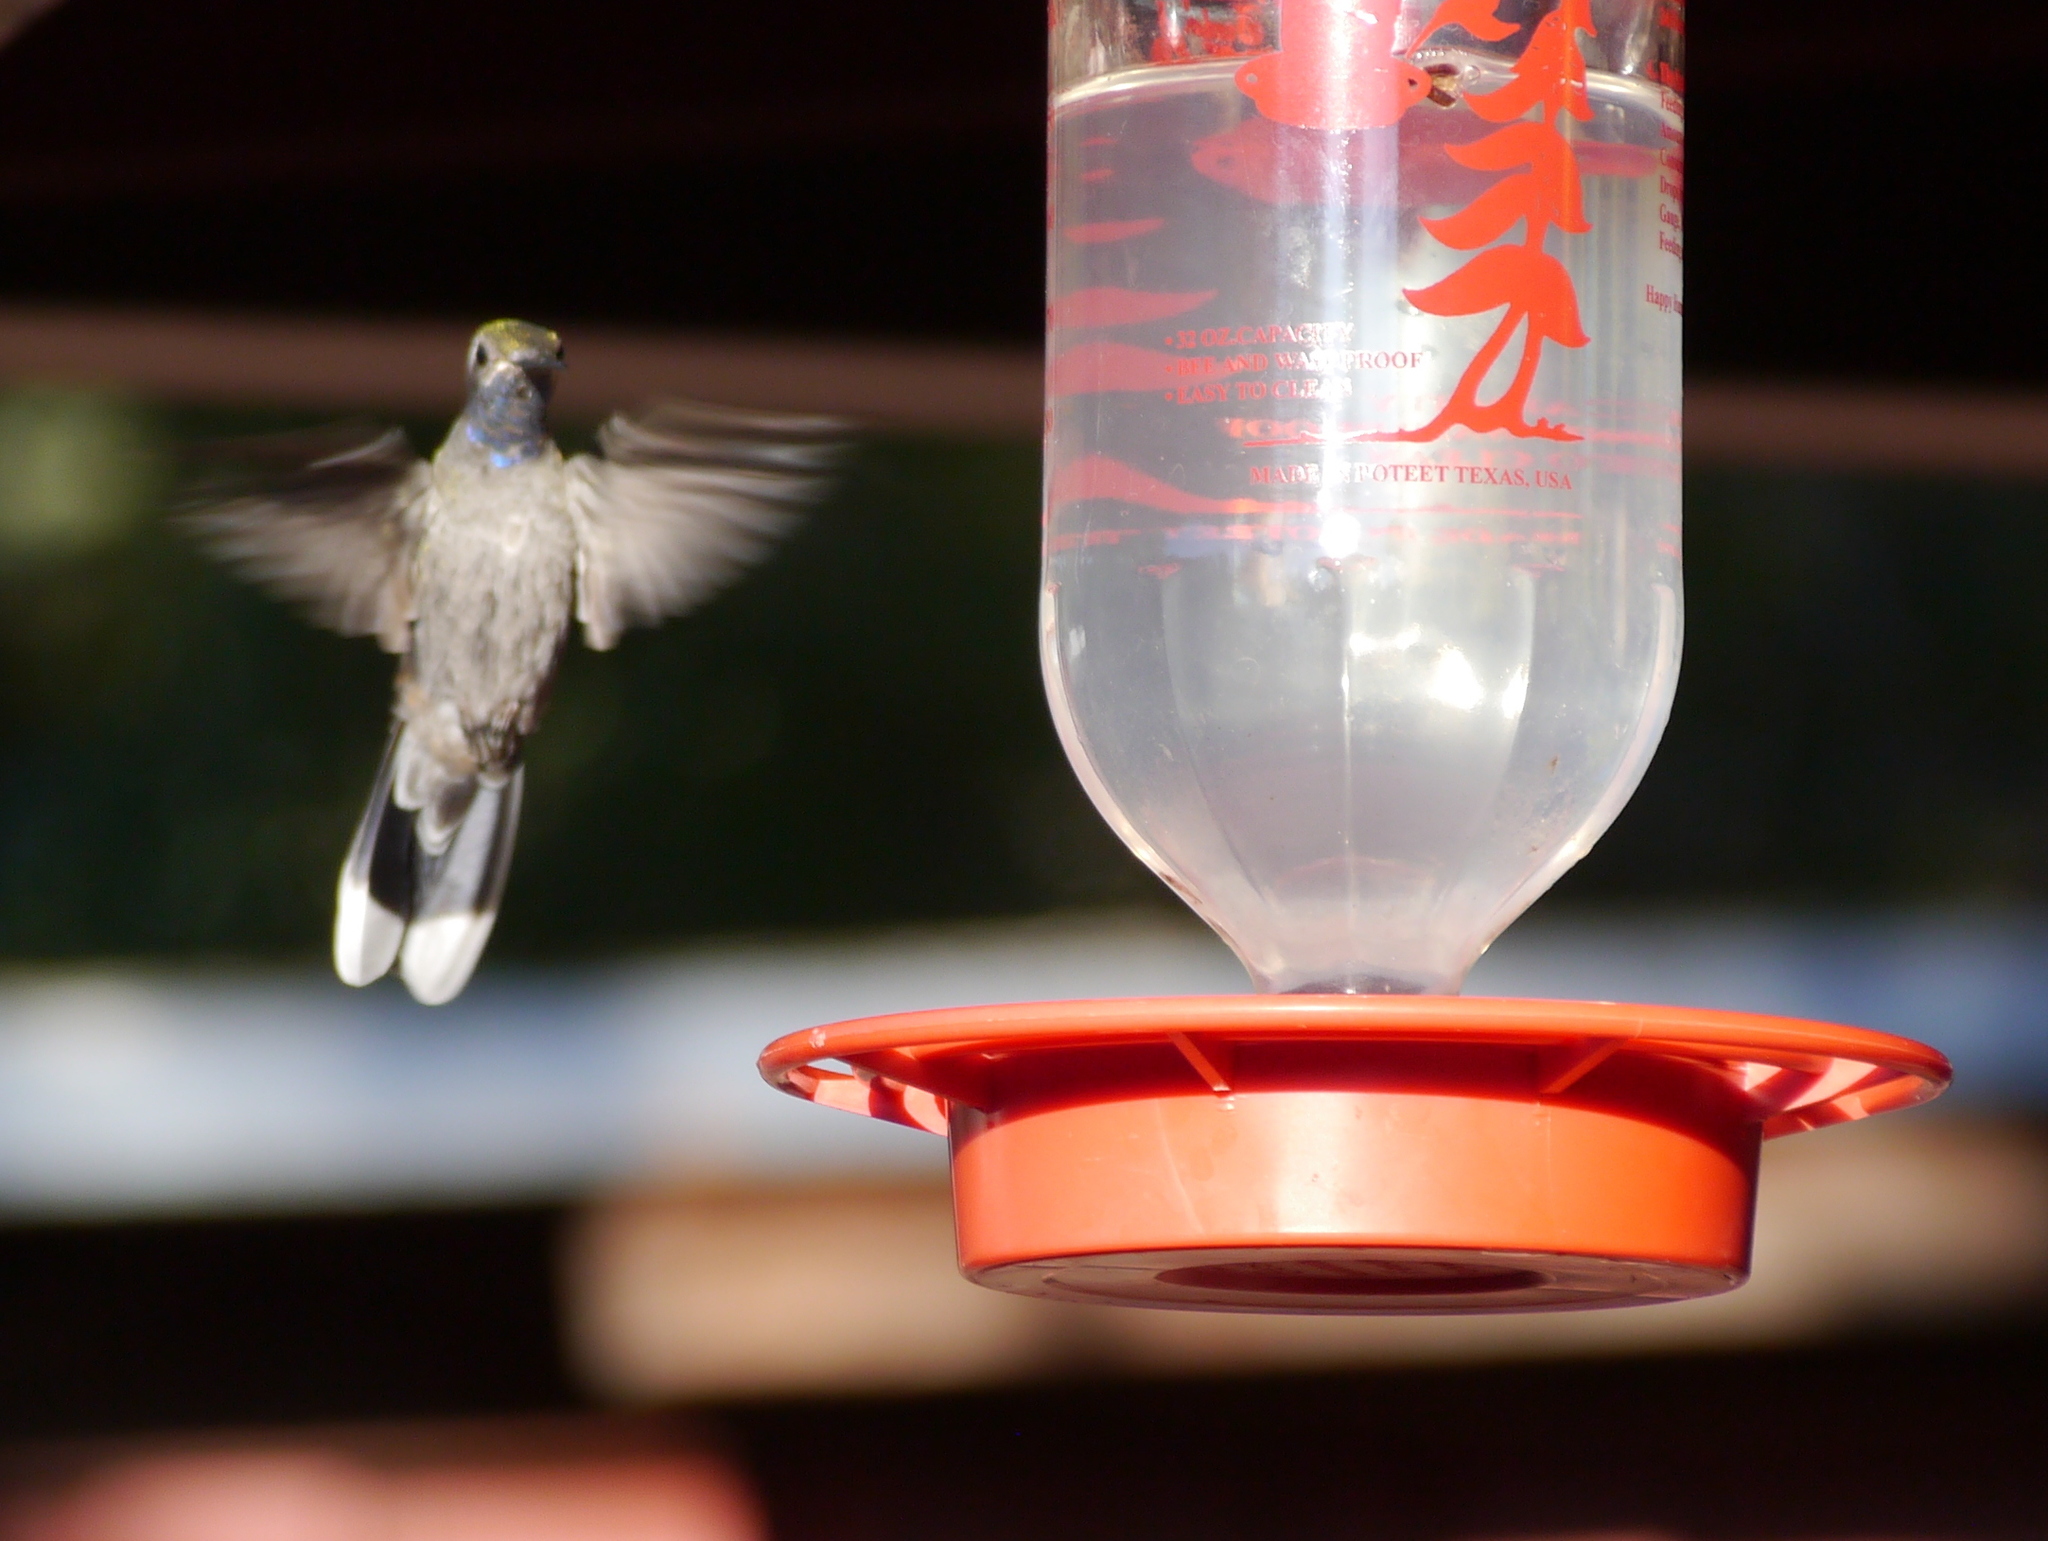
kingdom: Animalia
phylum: Chordata
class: Aves
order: Apodiformes
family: Trochilidae
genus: Lampornis
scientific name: Lampornis clemenciae
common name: Blue-throated mountaingem
